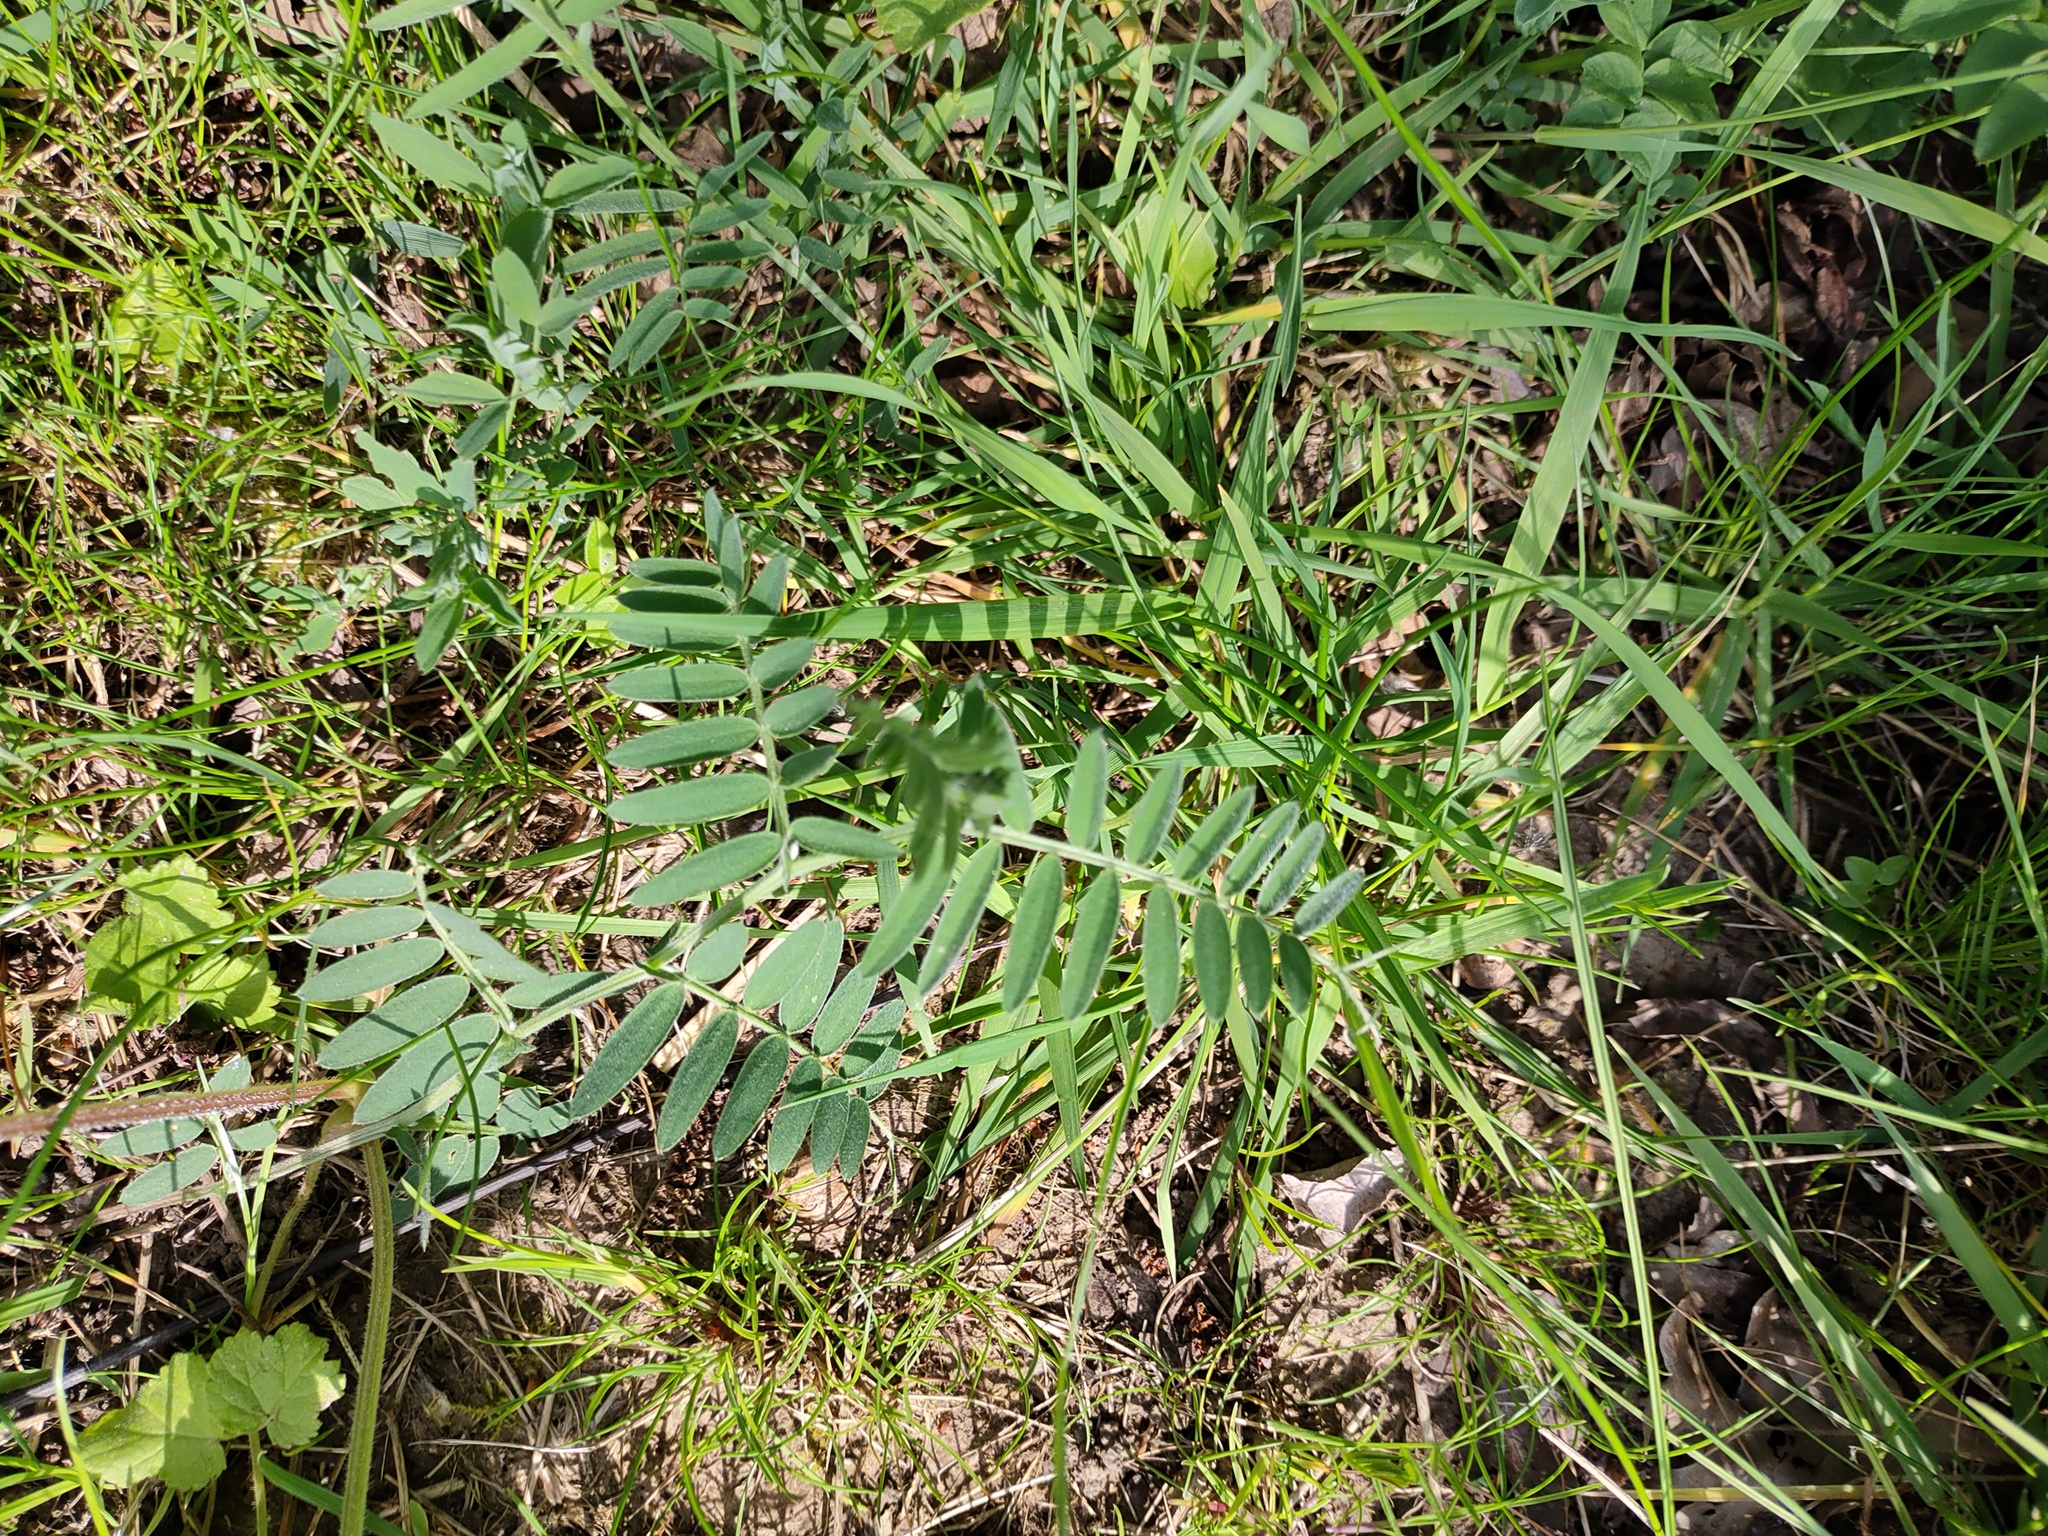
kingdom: Plantae
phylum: Tracheophyta
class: Magnoliopsida
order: Fabales
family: Fabaceae
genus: Vicia
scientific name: Vicia cracca
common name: Bird vetch
